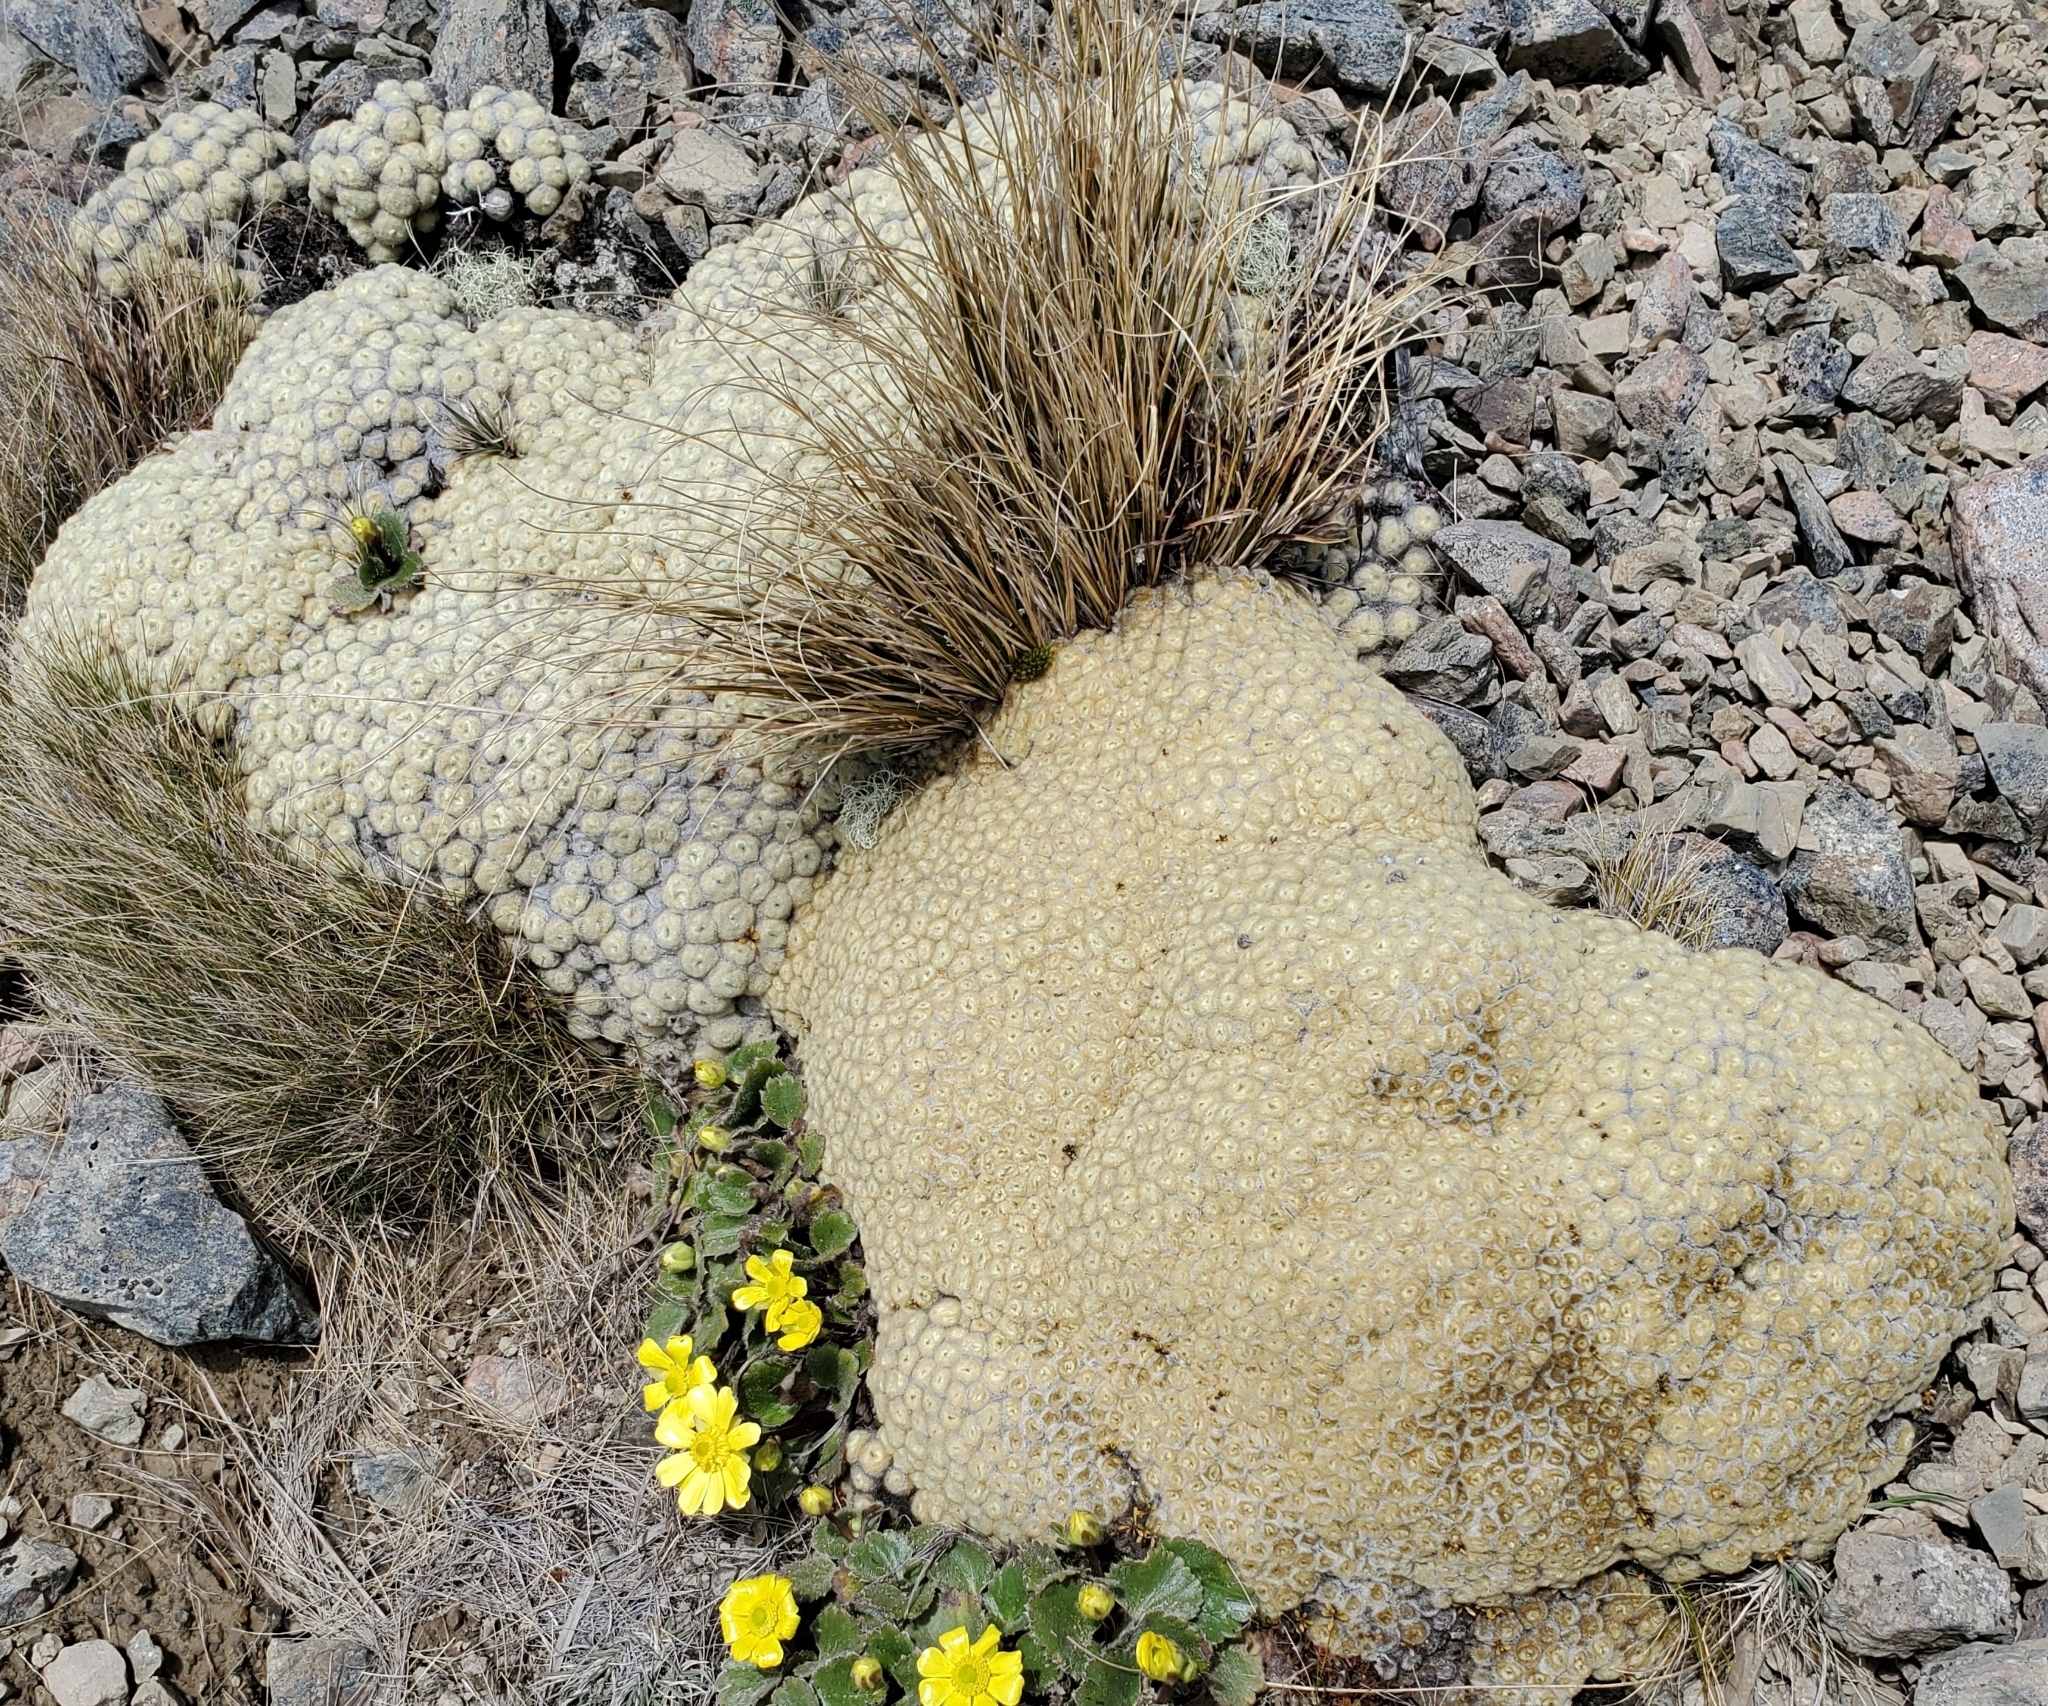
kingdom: Plantae
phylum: Tracheophyta
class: Magnoliopsida
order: Asterales
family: Asteraceae
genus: Haastia
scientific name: Haastia pulvinaris
